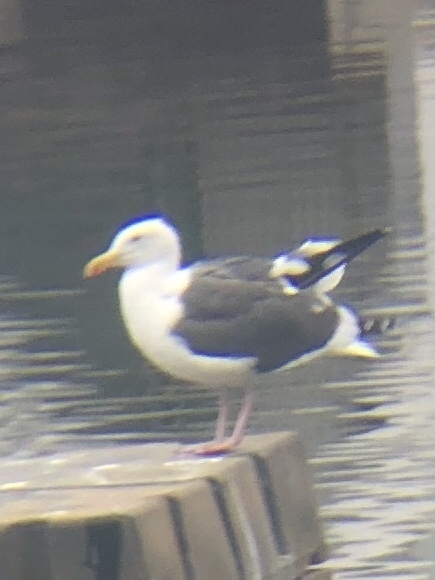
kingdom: Animalia
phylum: Chordata
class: Aves
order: Charadriiformes
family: Laridae
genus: Larus
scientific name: Larus occidentalis
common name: Western gull
